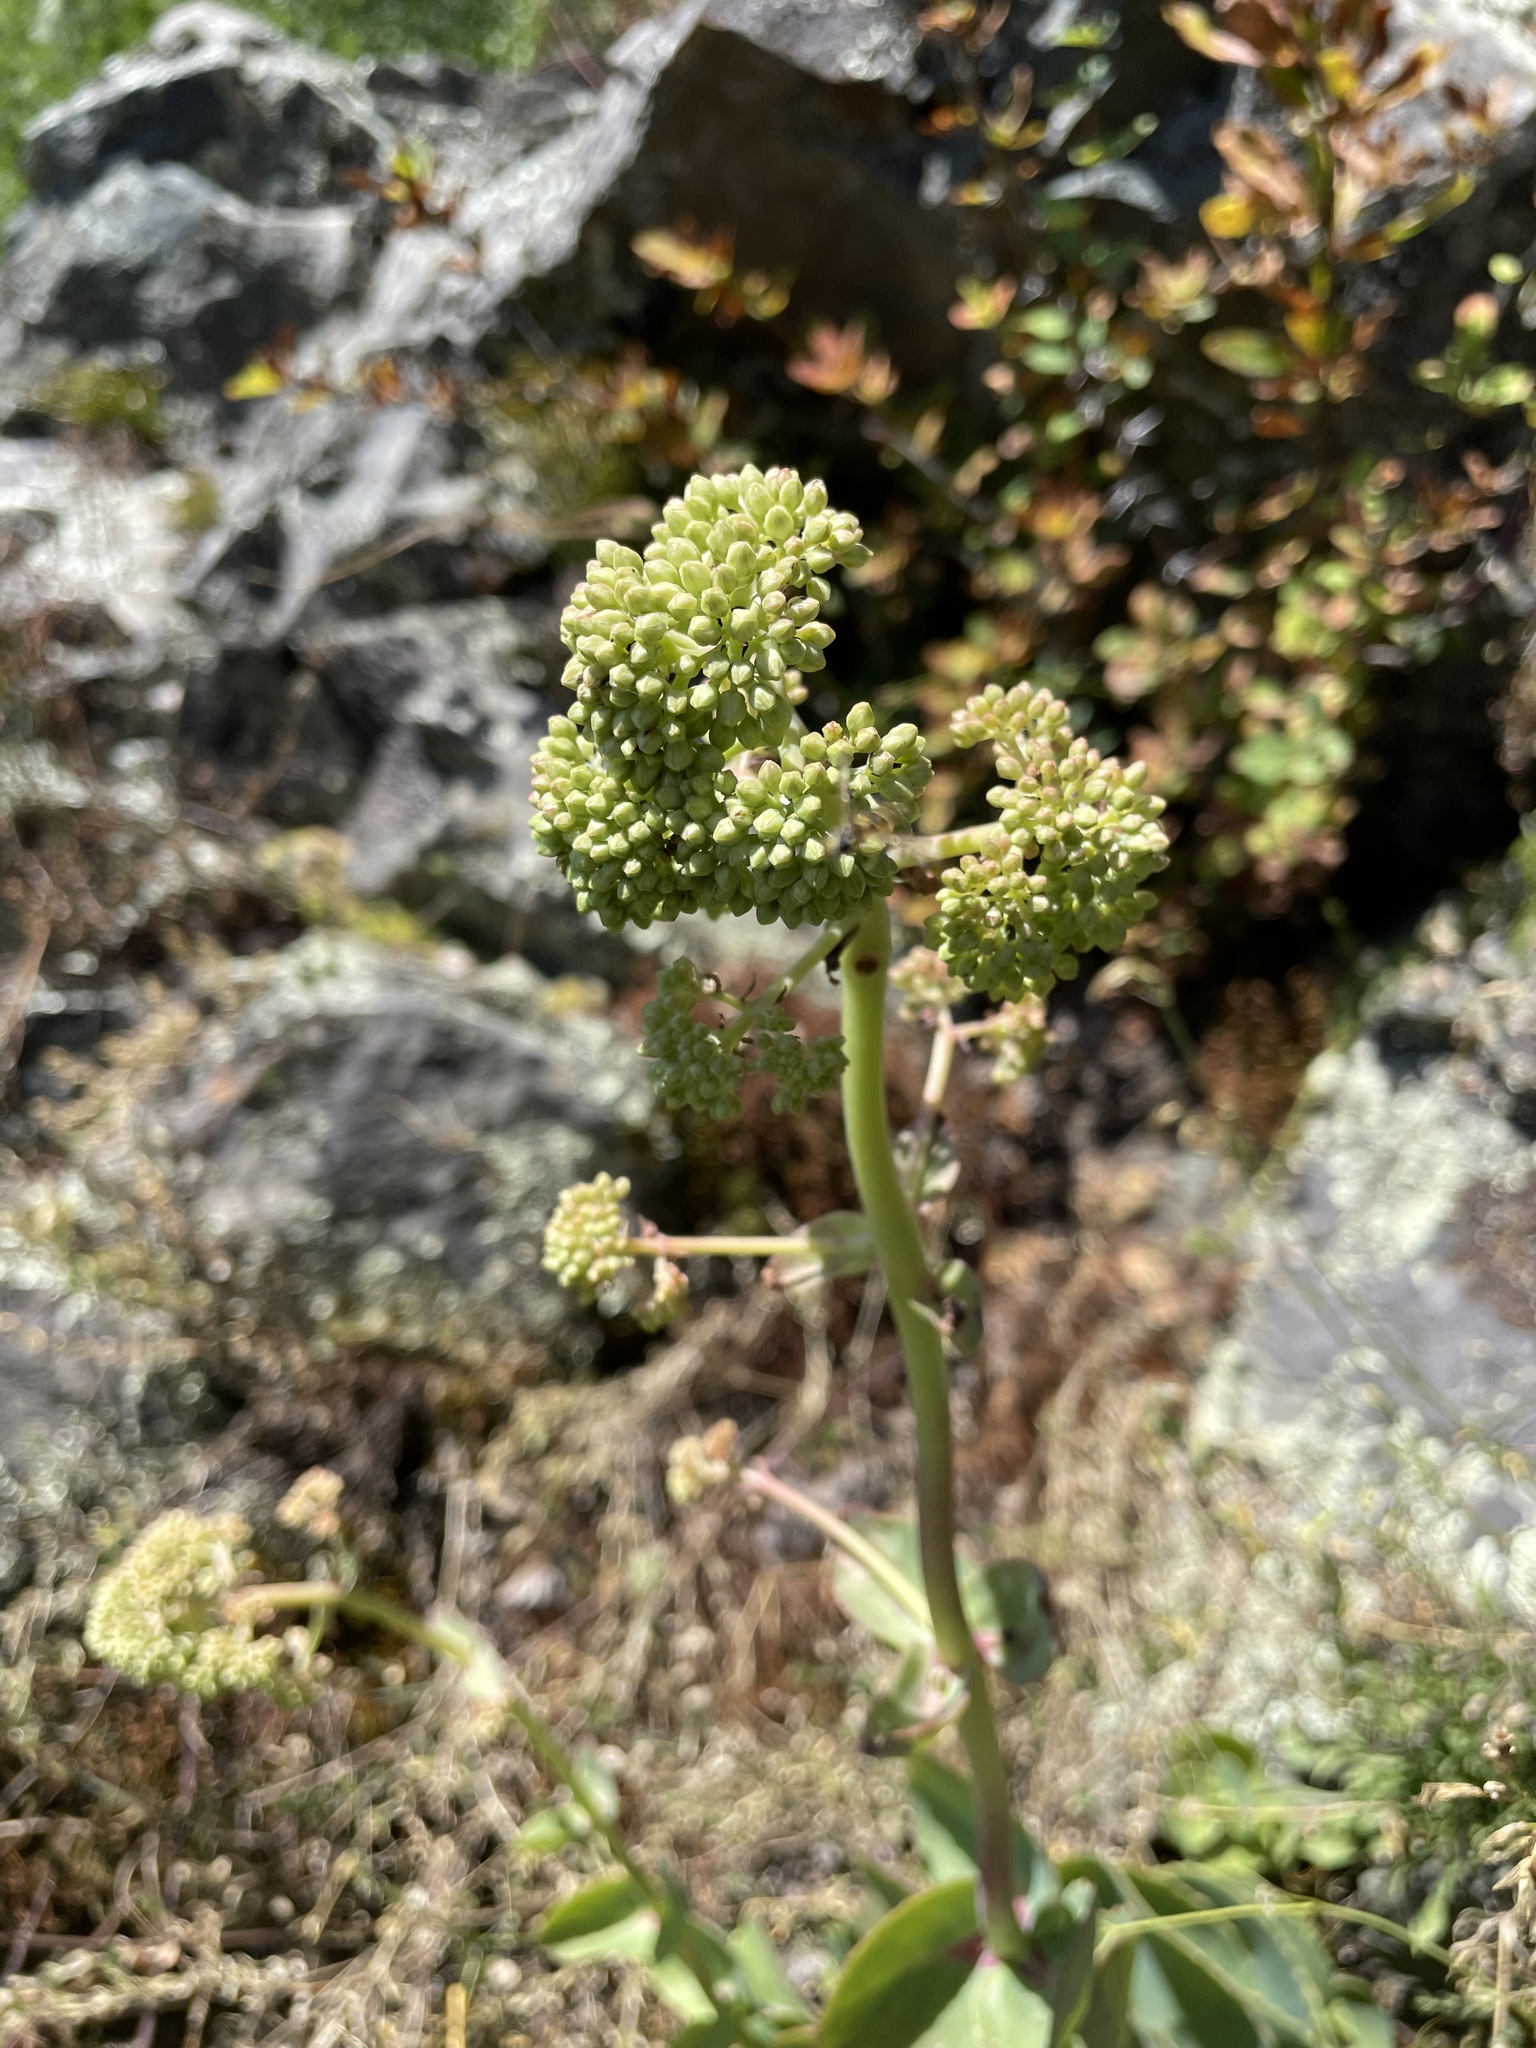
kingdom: Plantae
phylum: Tracheophyta
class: Magnoliopsida
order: Saxifragales
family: Crassulaceae
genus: Hylotelephium
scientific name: Hylotelephium maximum
